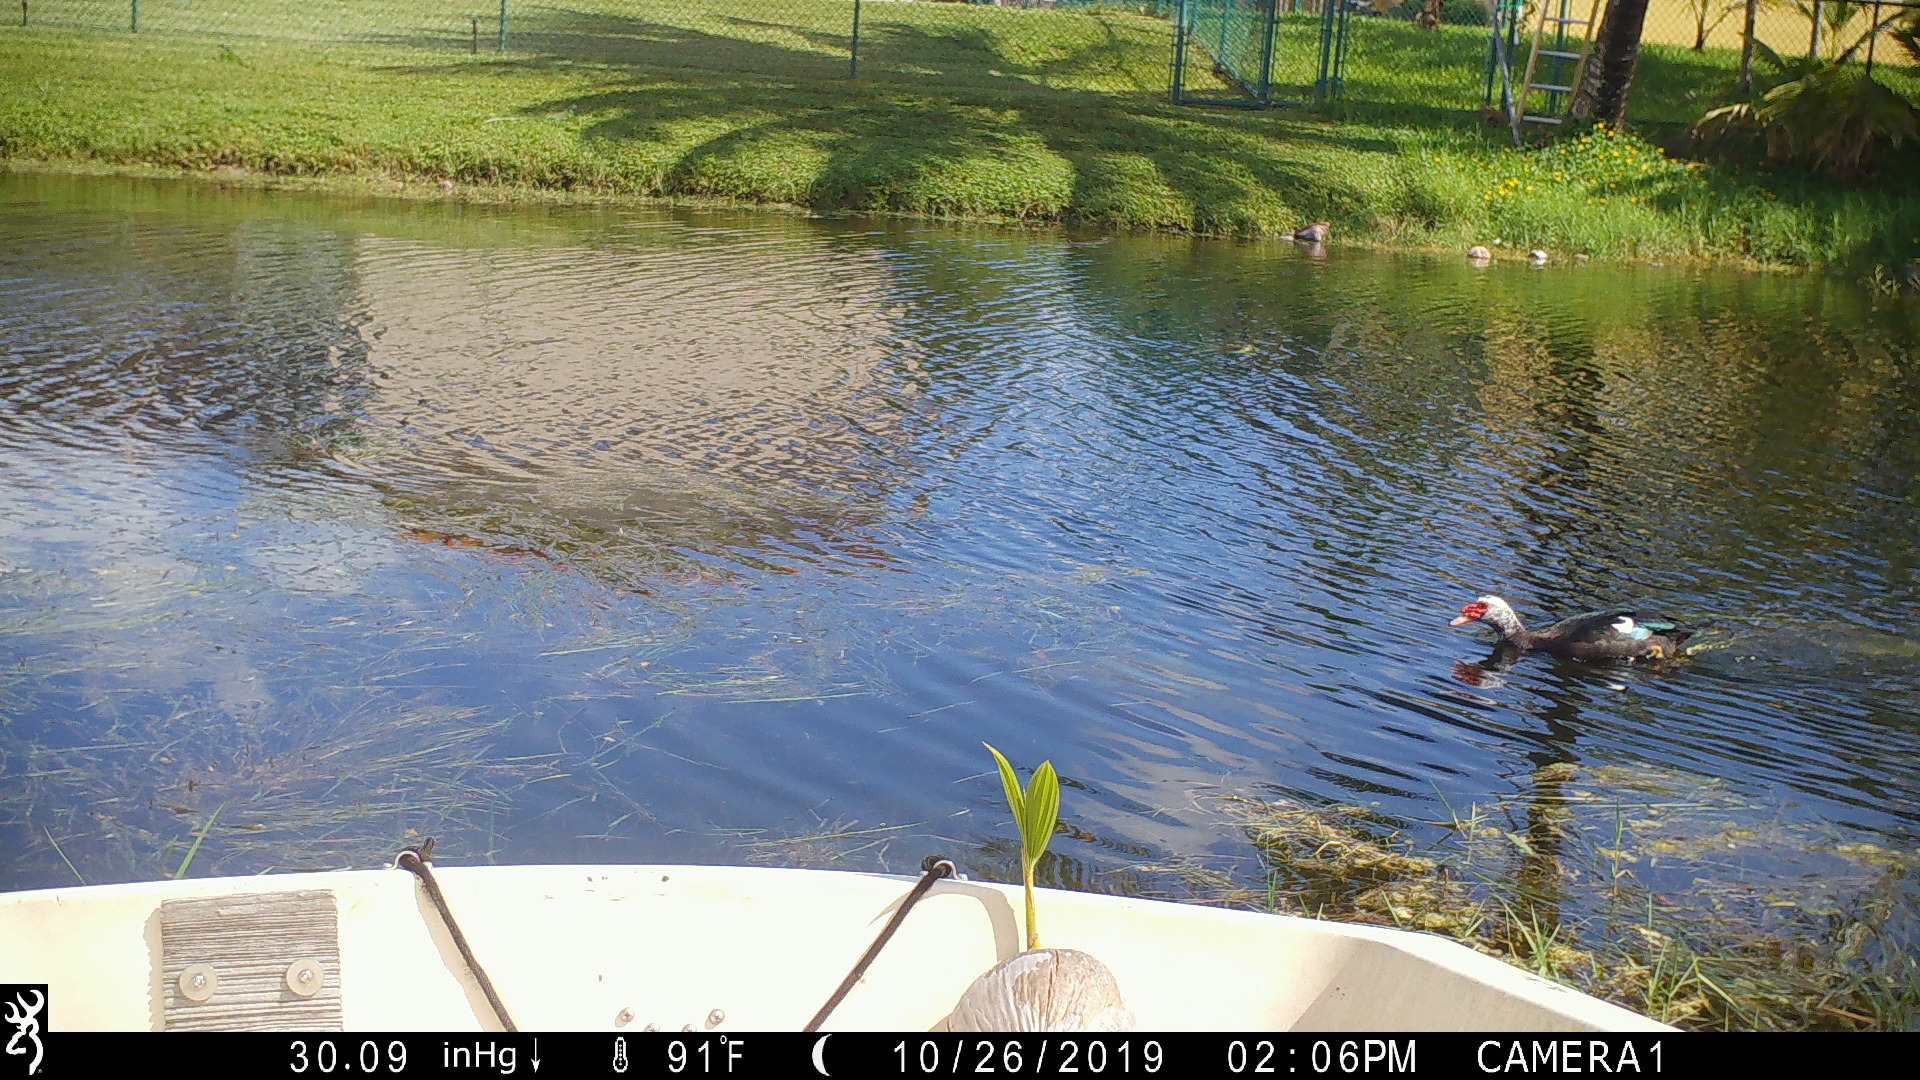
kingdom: Animalia
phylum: Chordata
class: Aves
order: Anseriformes
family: Anatidae
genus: Cairina
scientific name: Cairina moschata
